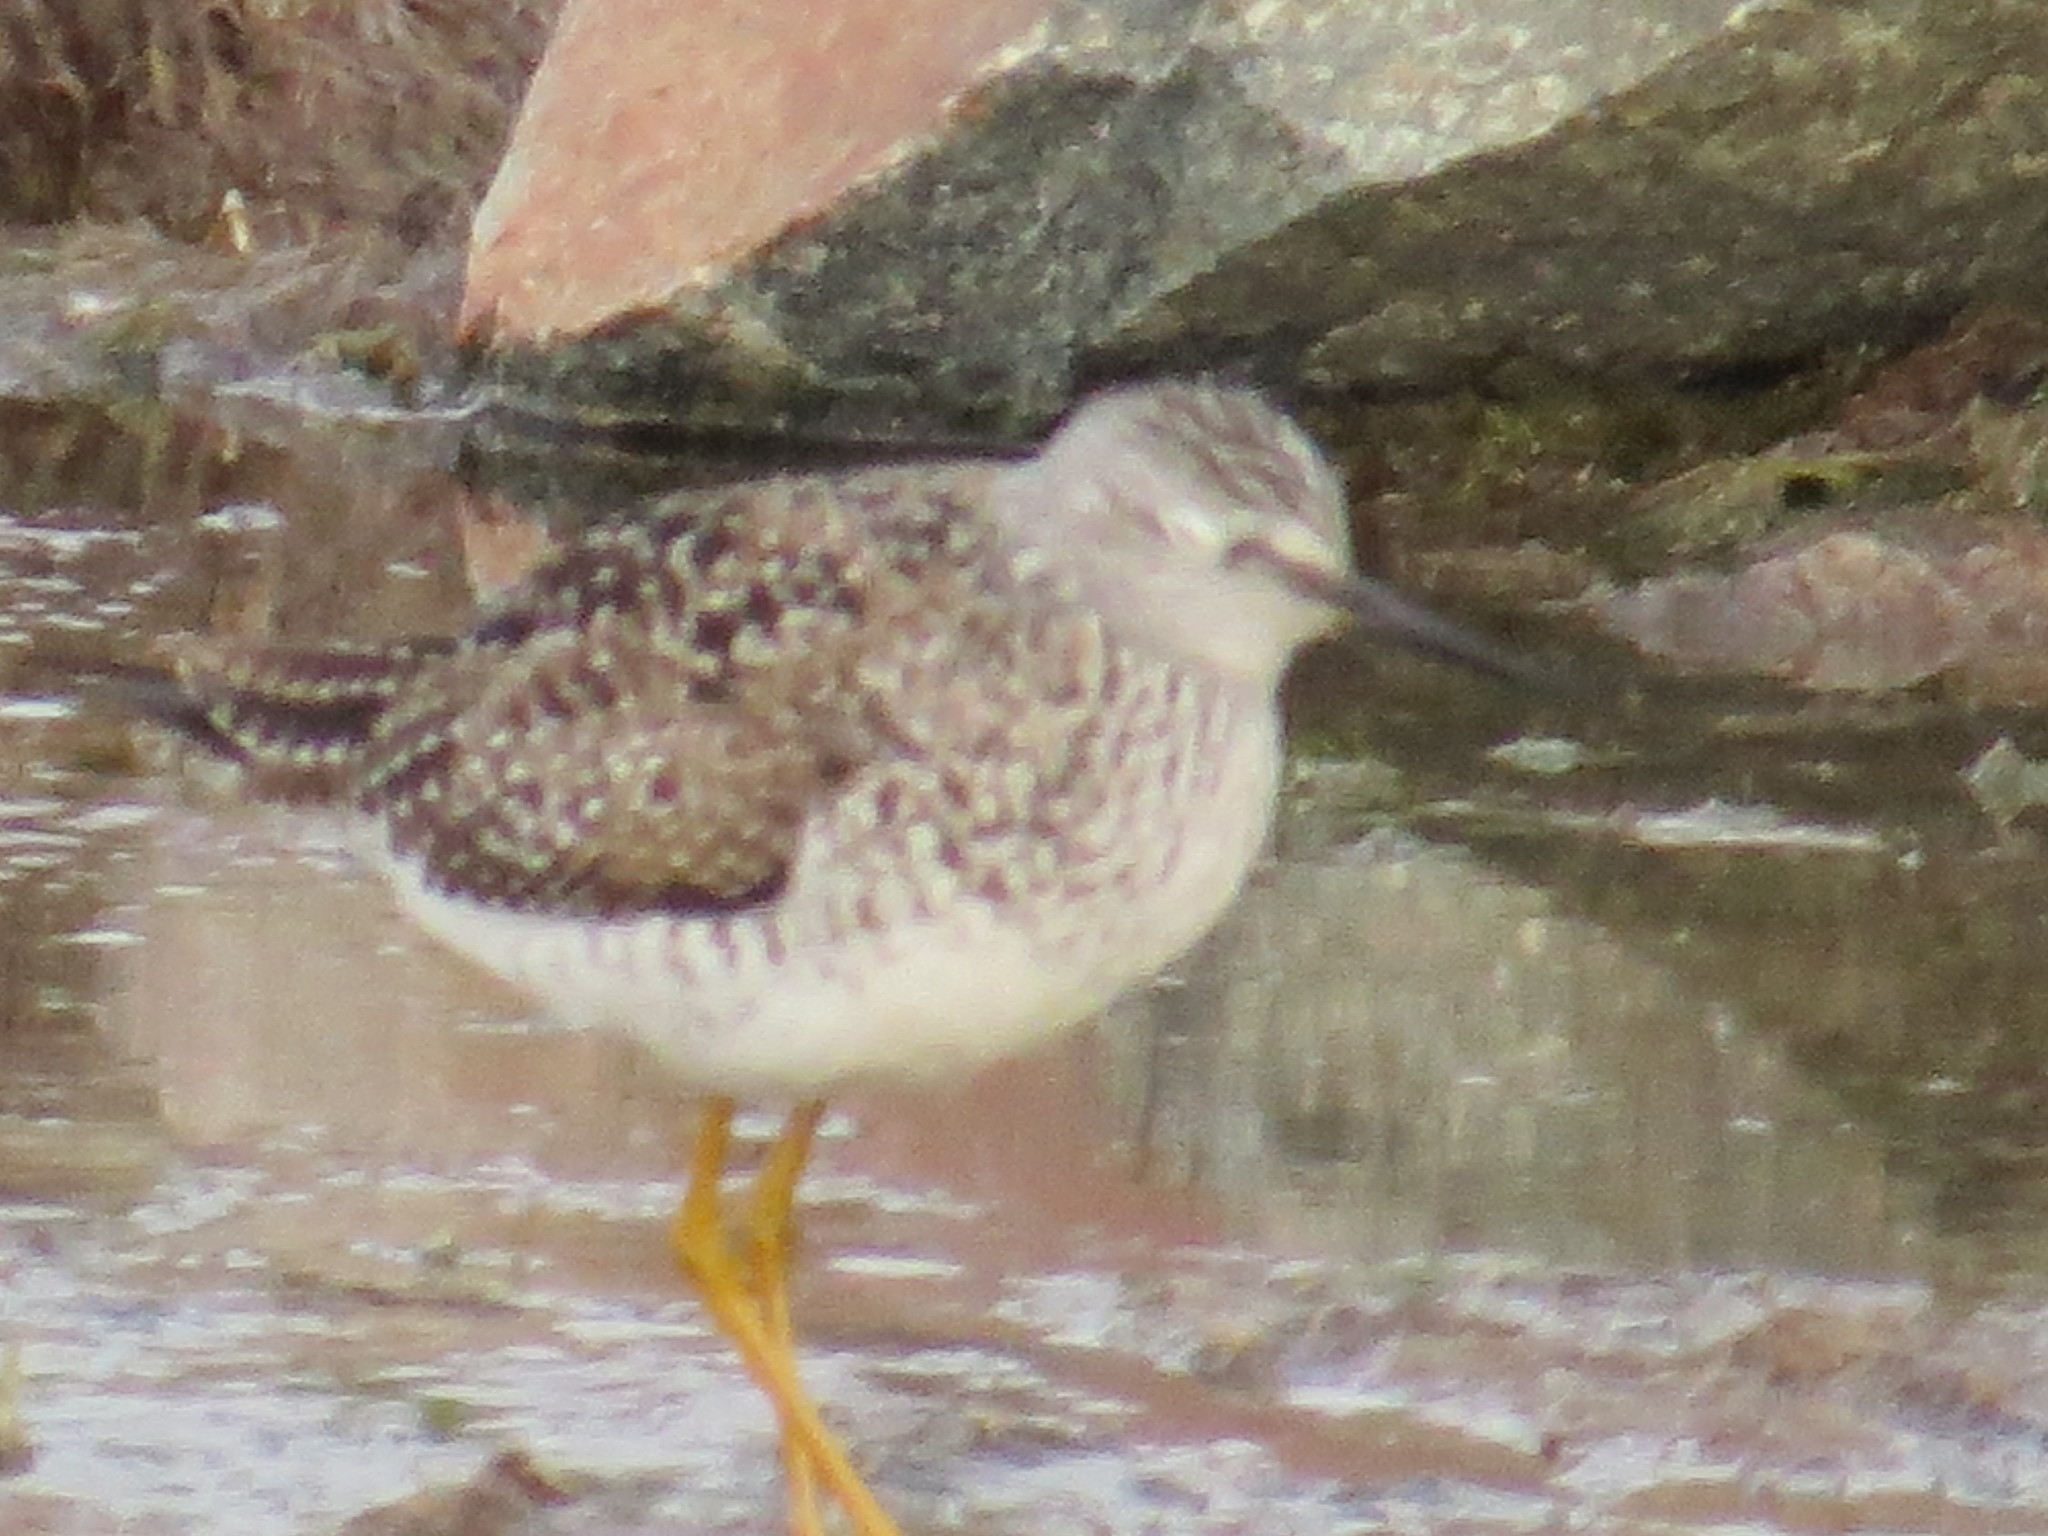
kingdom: Animalia
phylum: Chordata
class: Aves
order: Charadriiformes
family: Scolopacidae
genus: Tringa
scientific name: Tringa flavipes
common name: Lesser yellowlegs
